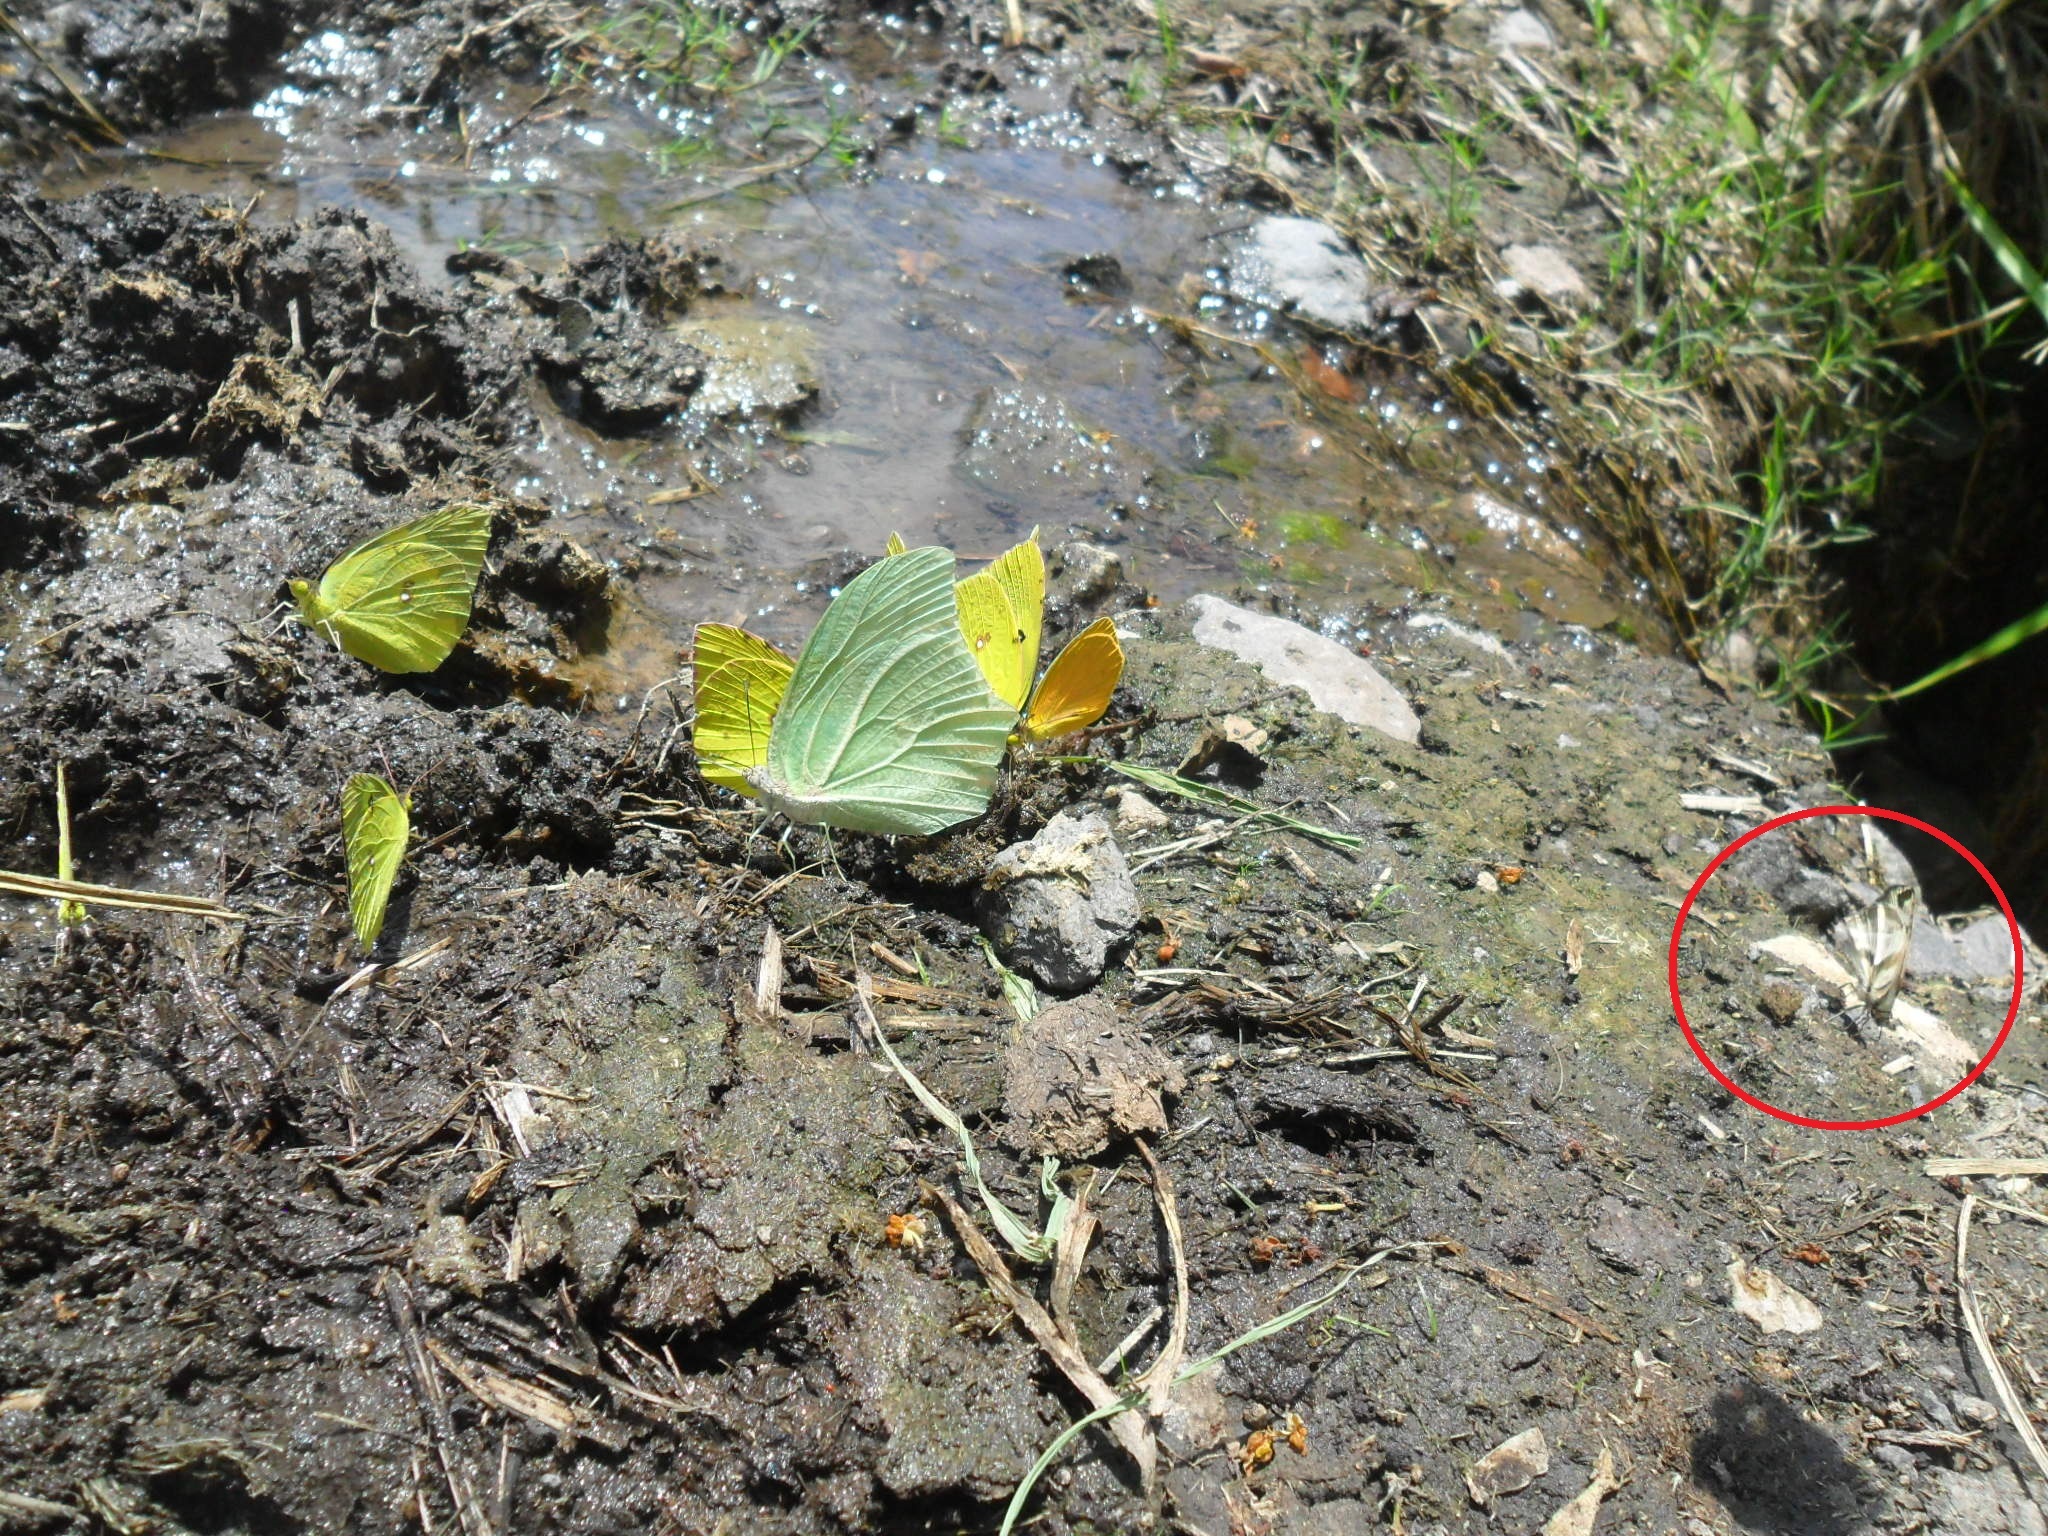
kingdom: Animalia
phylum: Arthropoda
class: Insecta
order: Lepidoptera
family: Hesperiidae
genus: Heliopetes
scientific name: Heliopetes laviana
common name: Laviana white-skipper
